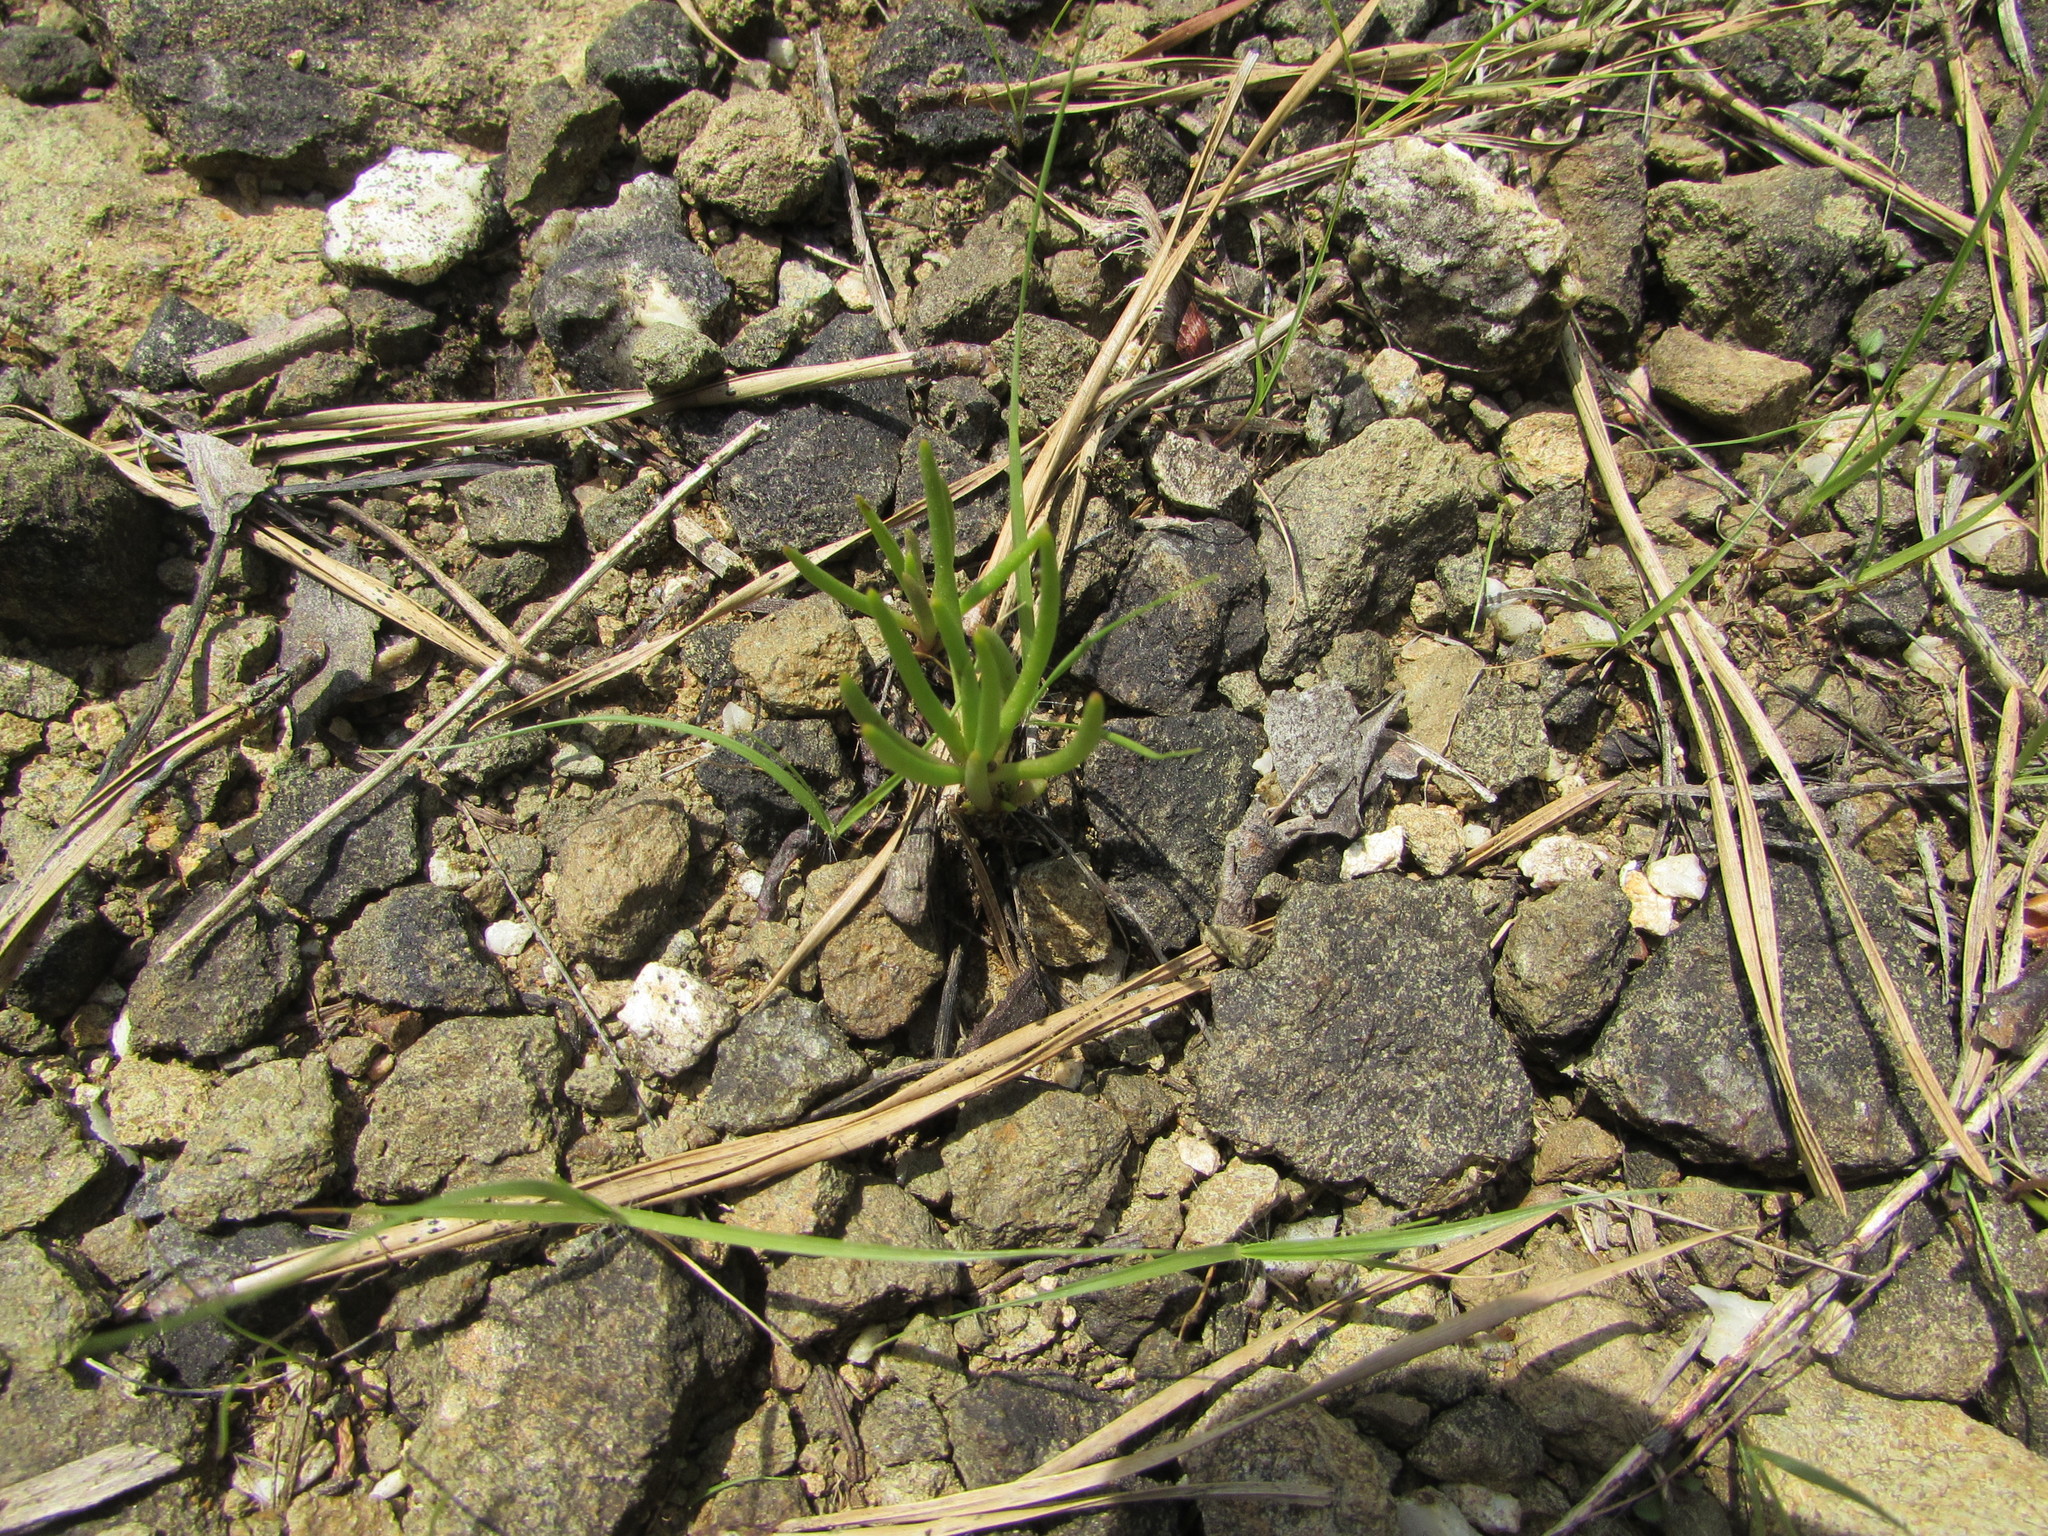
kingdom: Plantae
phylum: Tracheophyta
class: Magnoliopsida
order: Caryophyllales
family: Montiaceae
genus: Phemeranthus
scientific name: Phemeranthus teretifolius
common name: Quill fameflower
